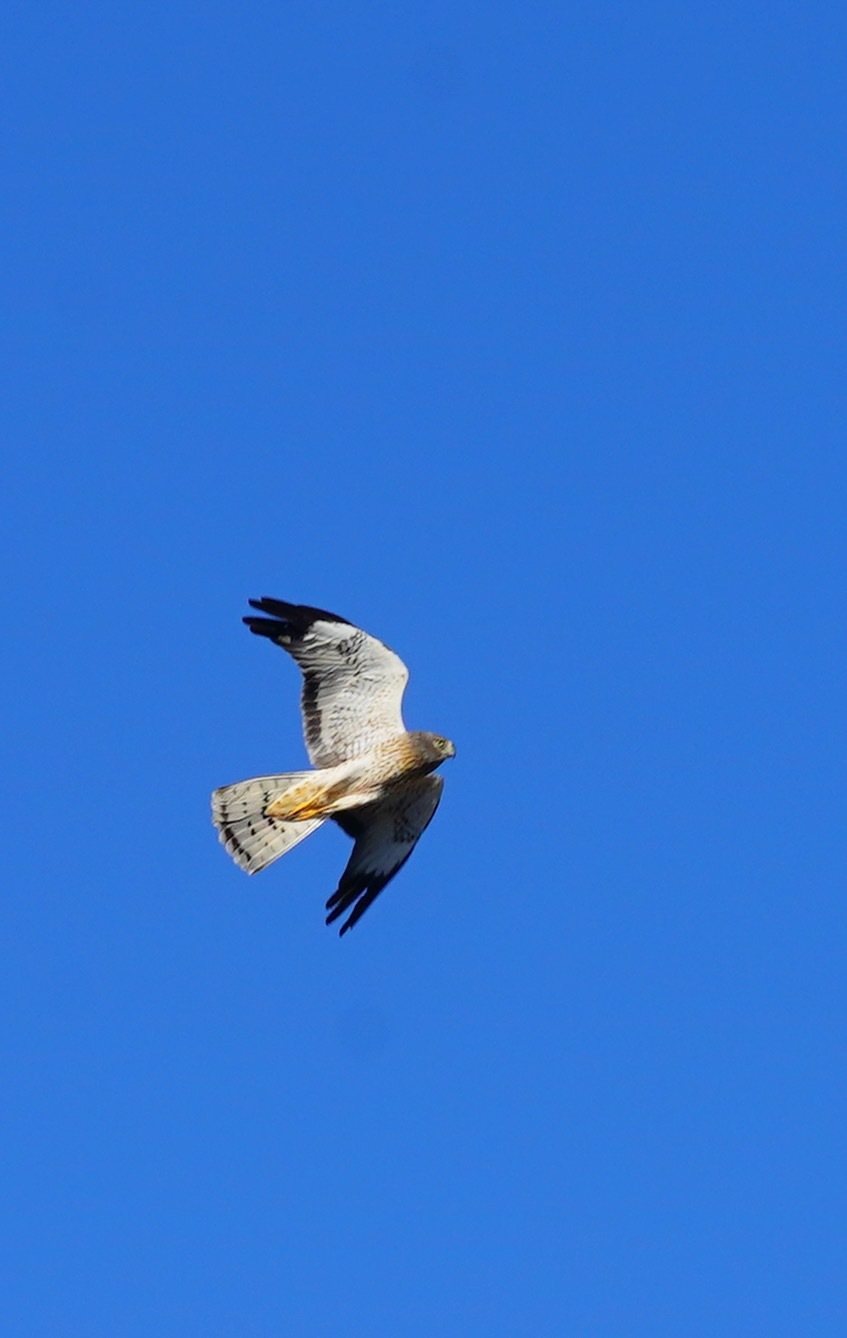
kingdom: Animalia
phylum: Chordata
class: Aves
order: Accipitriformes
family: Accipitridae
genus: Circus
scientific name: Circus cyaneus
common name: Hen harrier
